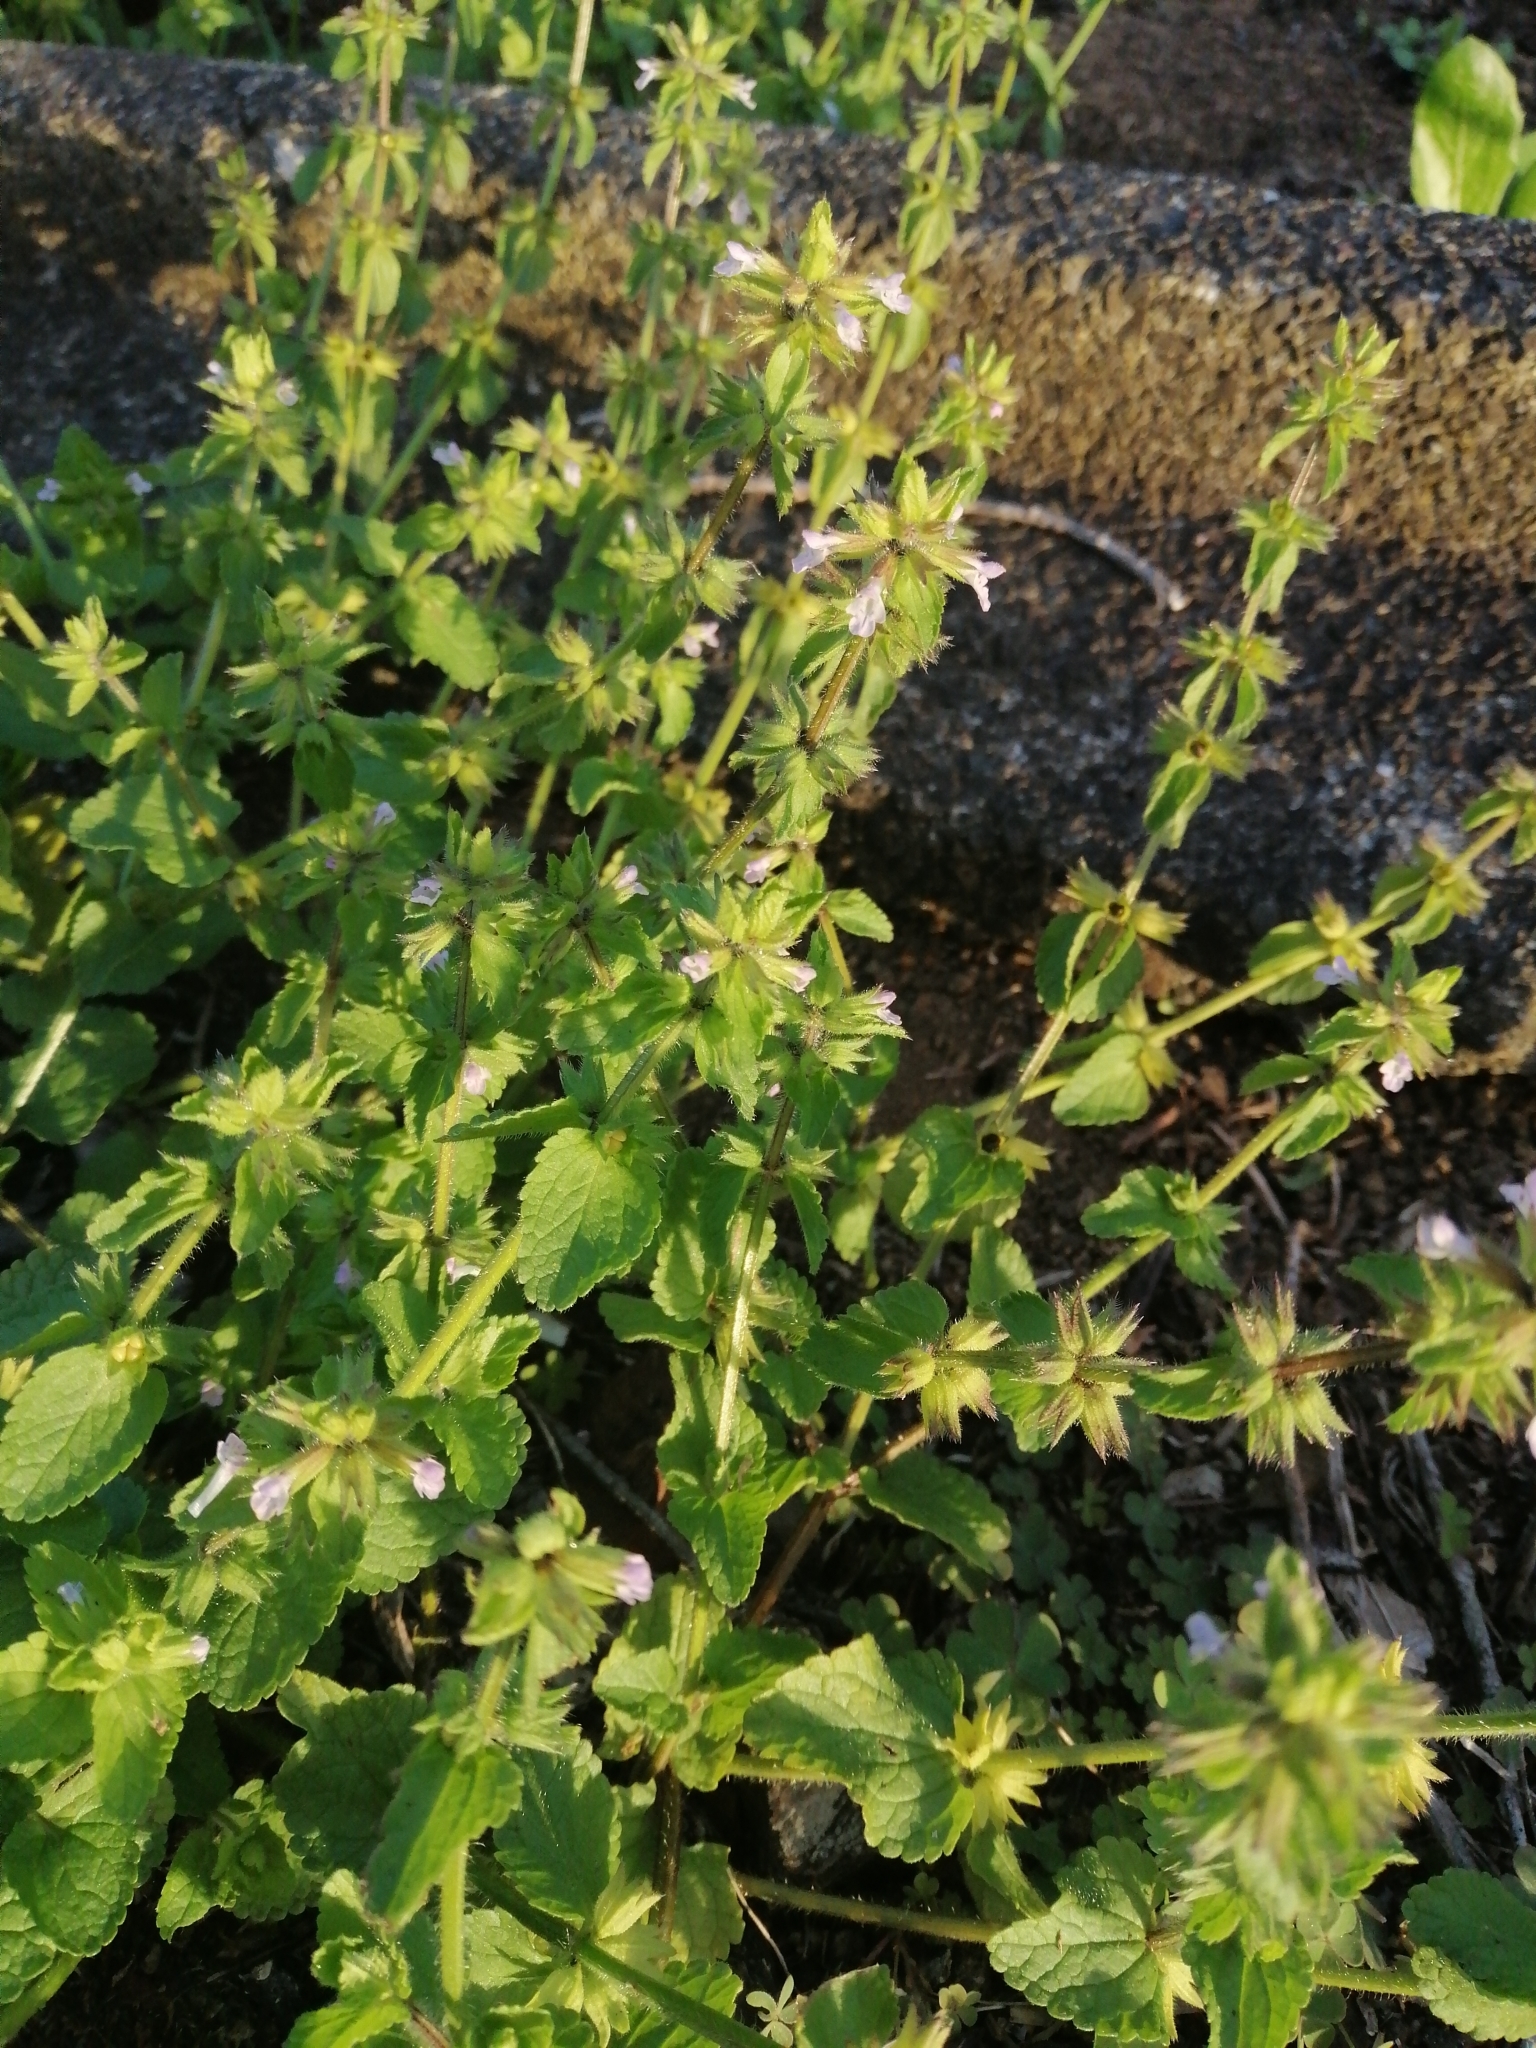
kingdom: Plantae
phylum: Tracheophyta
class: Magnoliopsida
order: Lamiales
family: Lamiaceae
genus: Stachys
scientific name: Stachys arvensis
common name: Field woundwort
